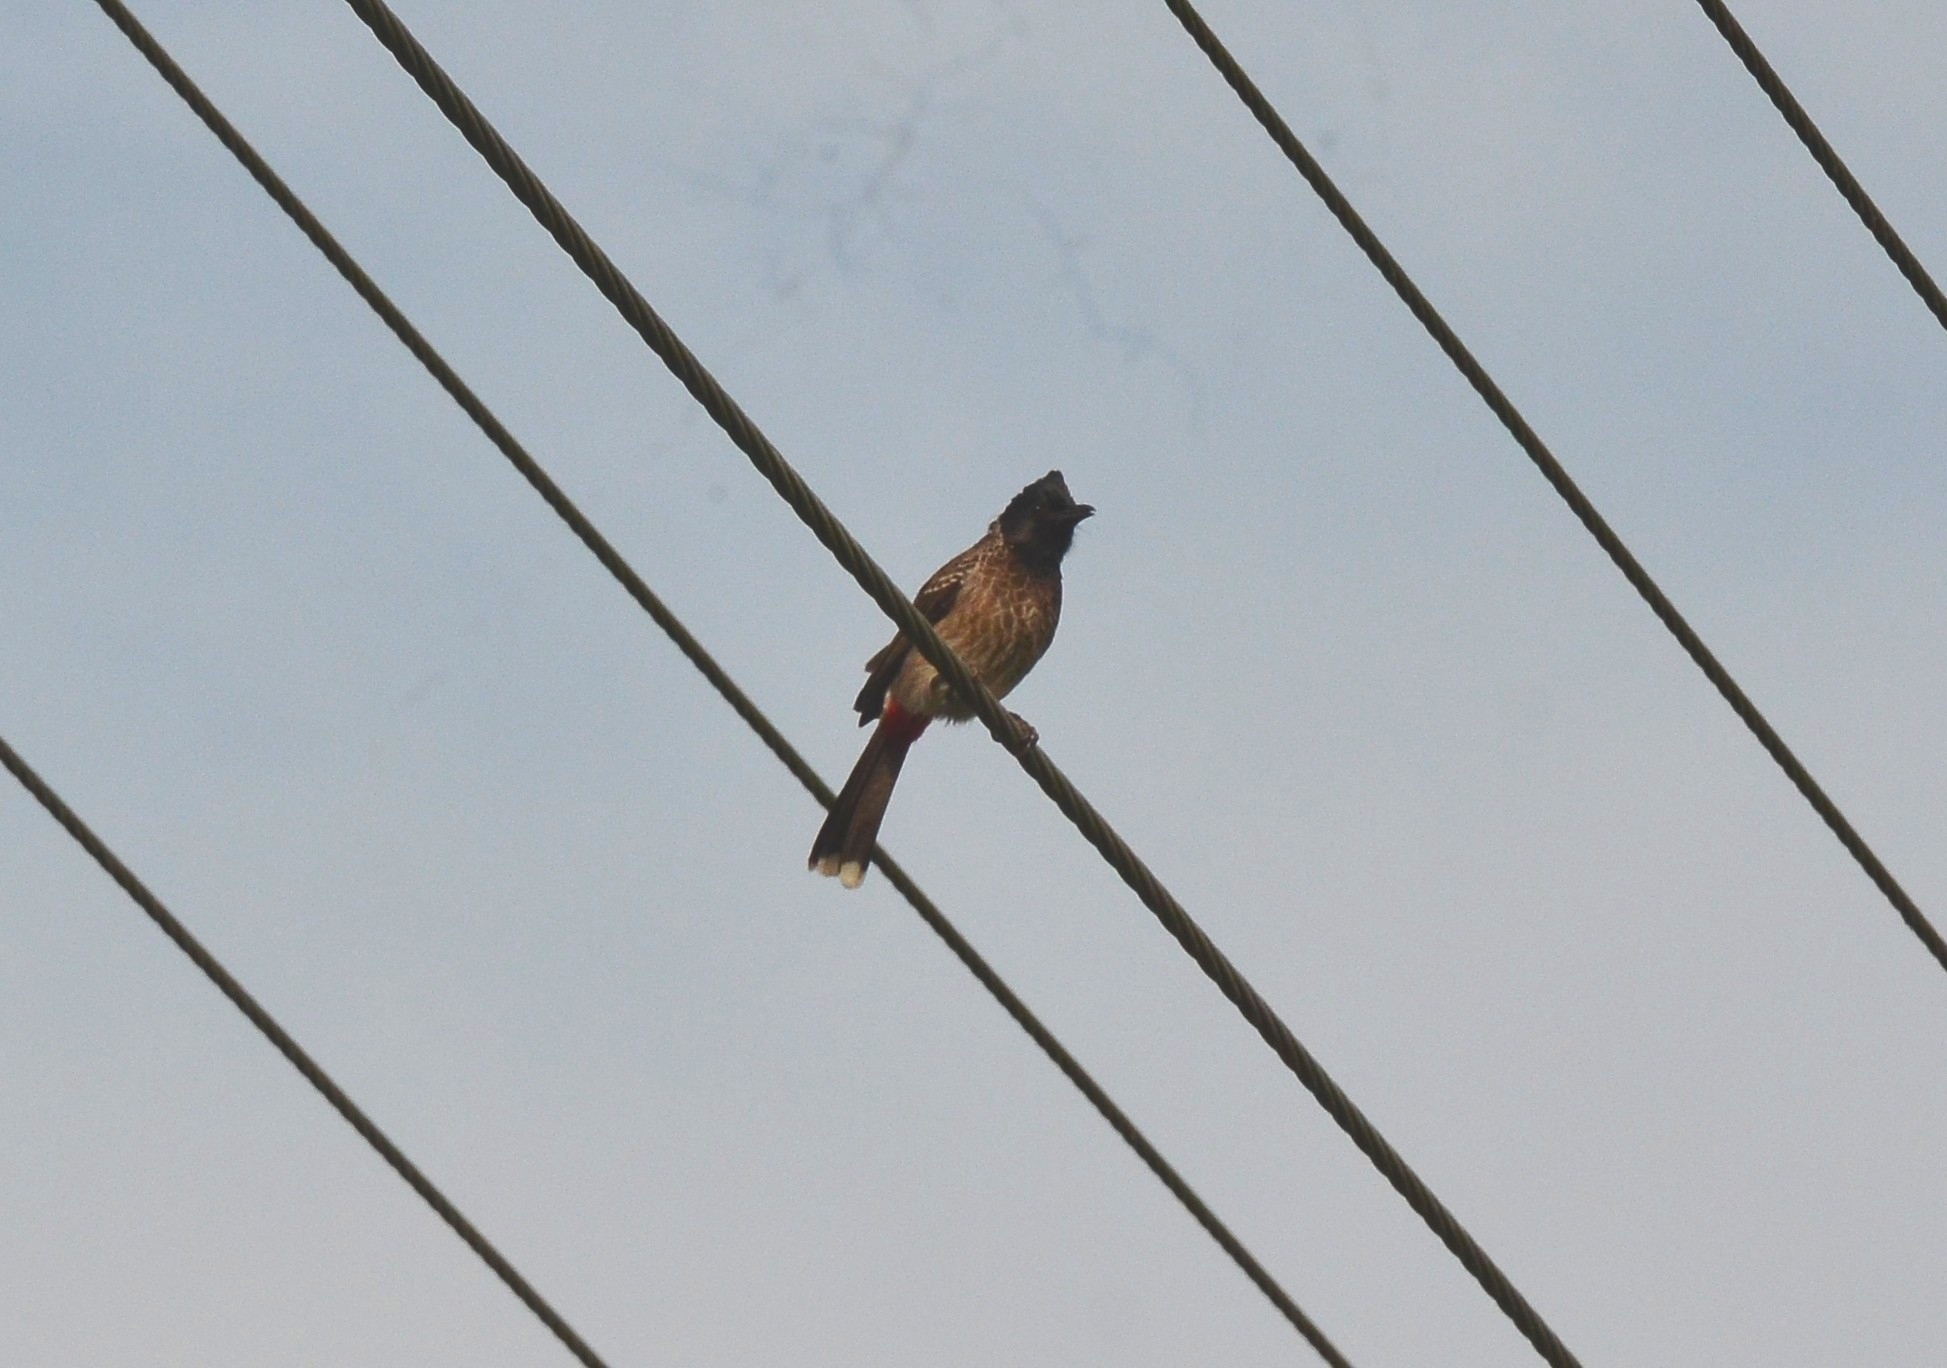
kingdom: Animalia
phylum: Chordata
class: Aves
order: Passeriformes
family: Pycnonotidae
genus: Pycnonotus
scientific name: Pycnonotus cafer
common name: Red-vented bulbul
